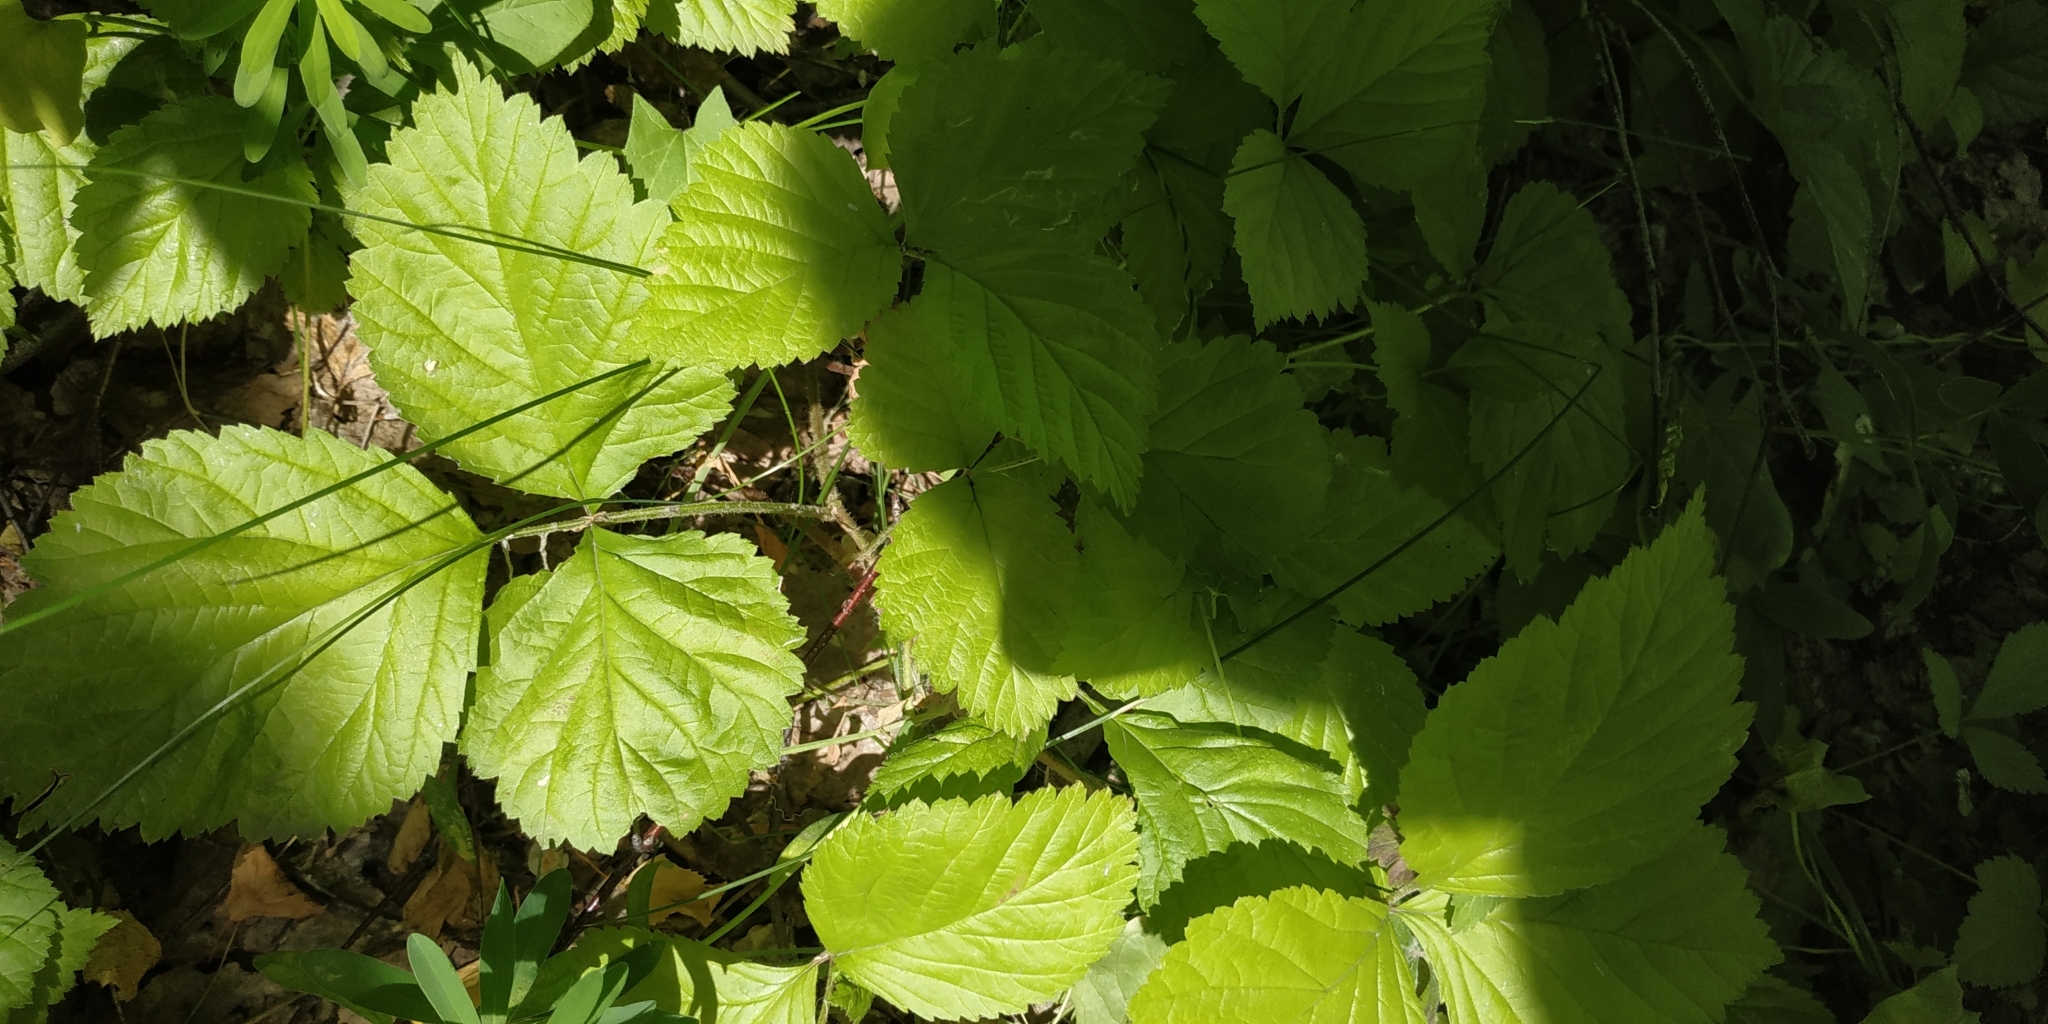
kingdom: Plantae
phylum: Tracheophyta
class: Magnoliopsida
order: Rosales
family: Rosaceae
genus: Rubus
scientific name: Rubus saxatilis
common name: Stone bramble
